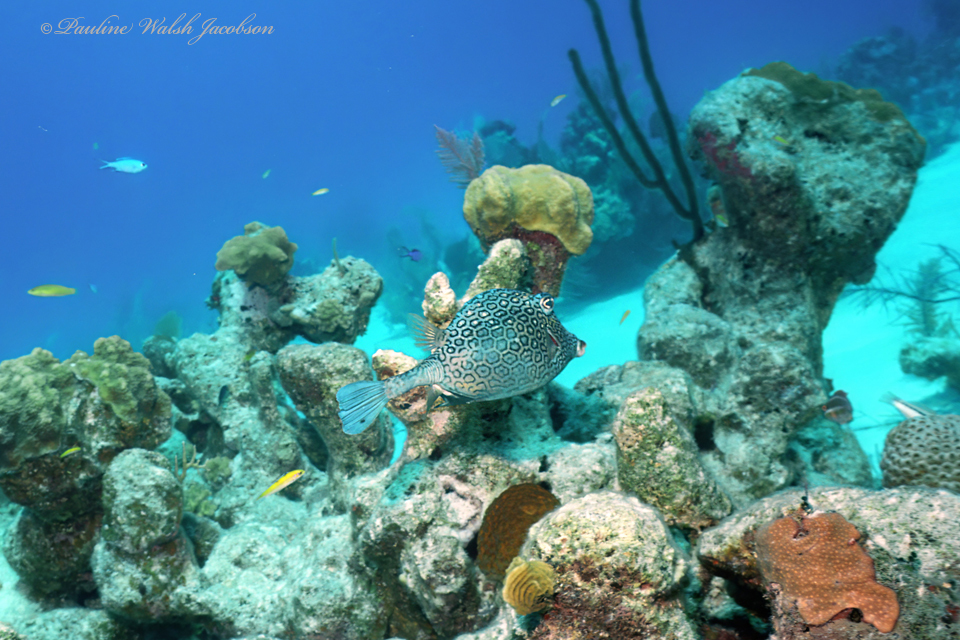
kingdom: Animalia
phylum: Chordata
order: Tetraodontiformes
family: Ostraciidae
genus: Acanthostracion
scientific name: Acanthostracion polygonius
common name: Honeycomb cowfish
